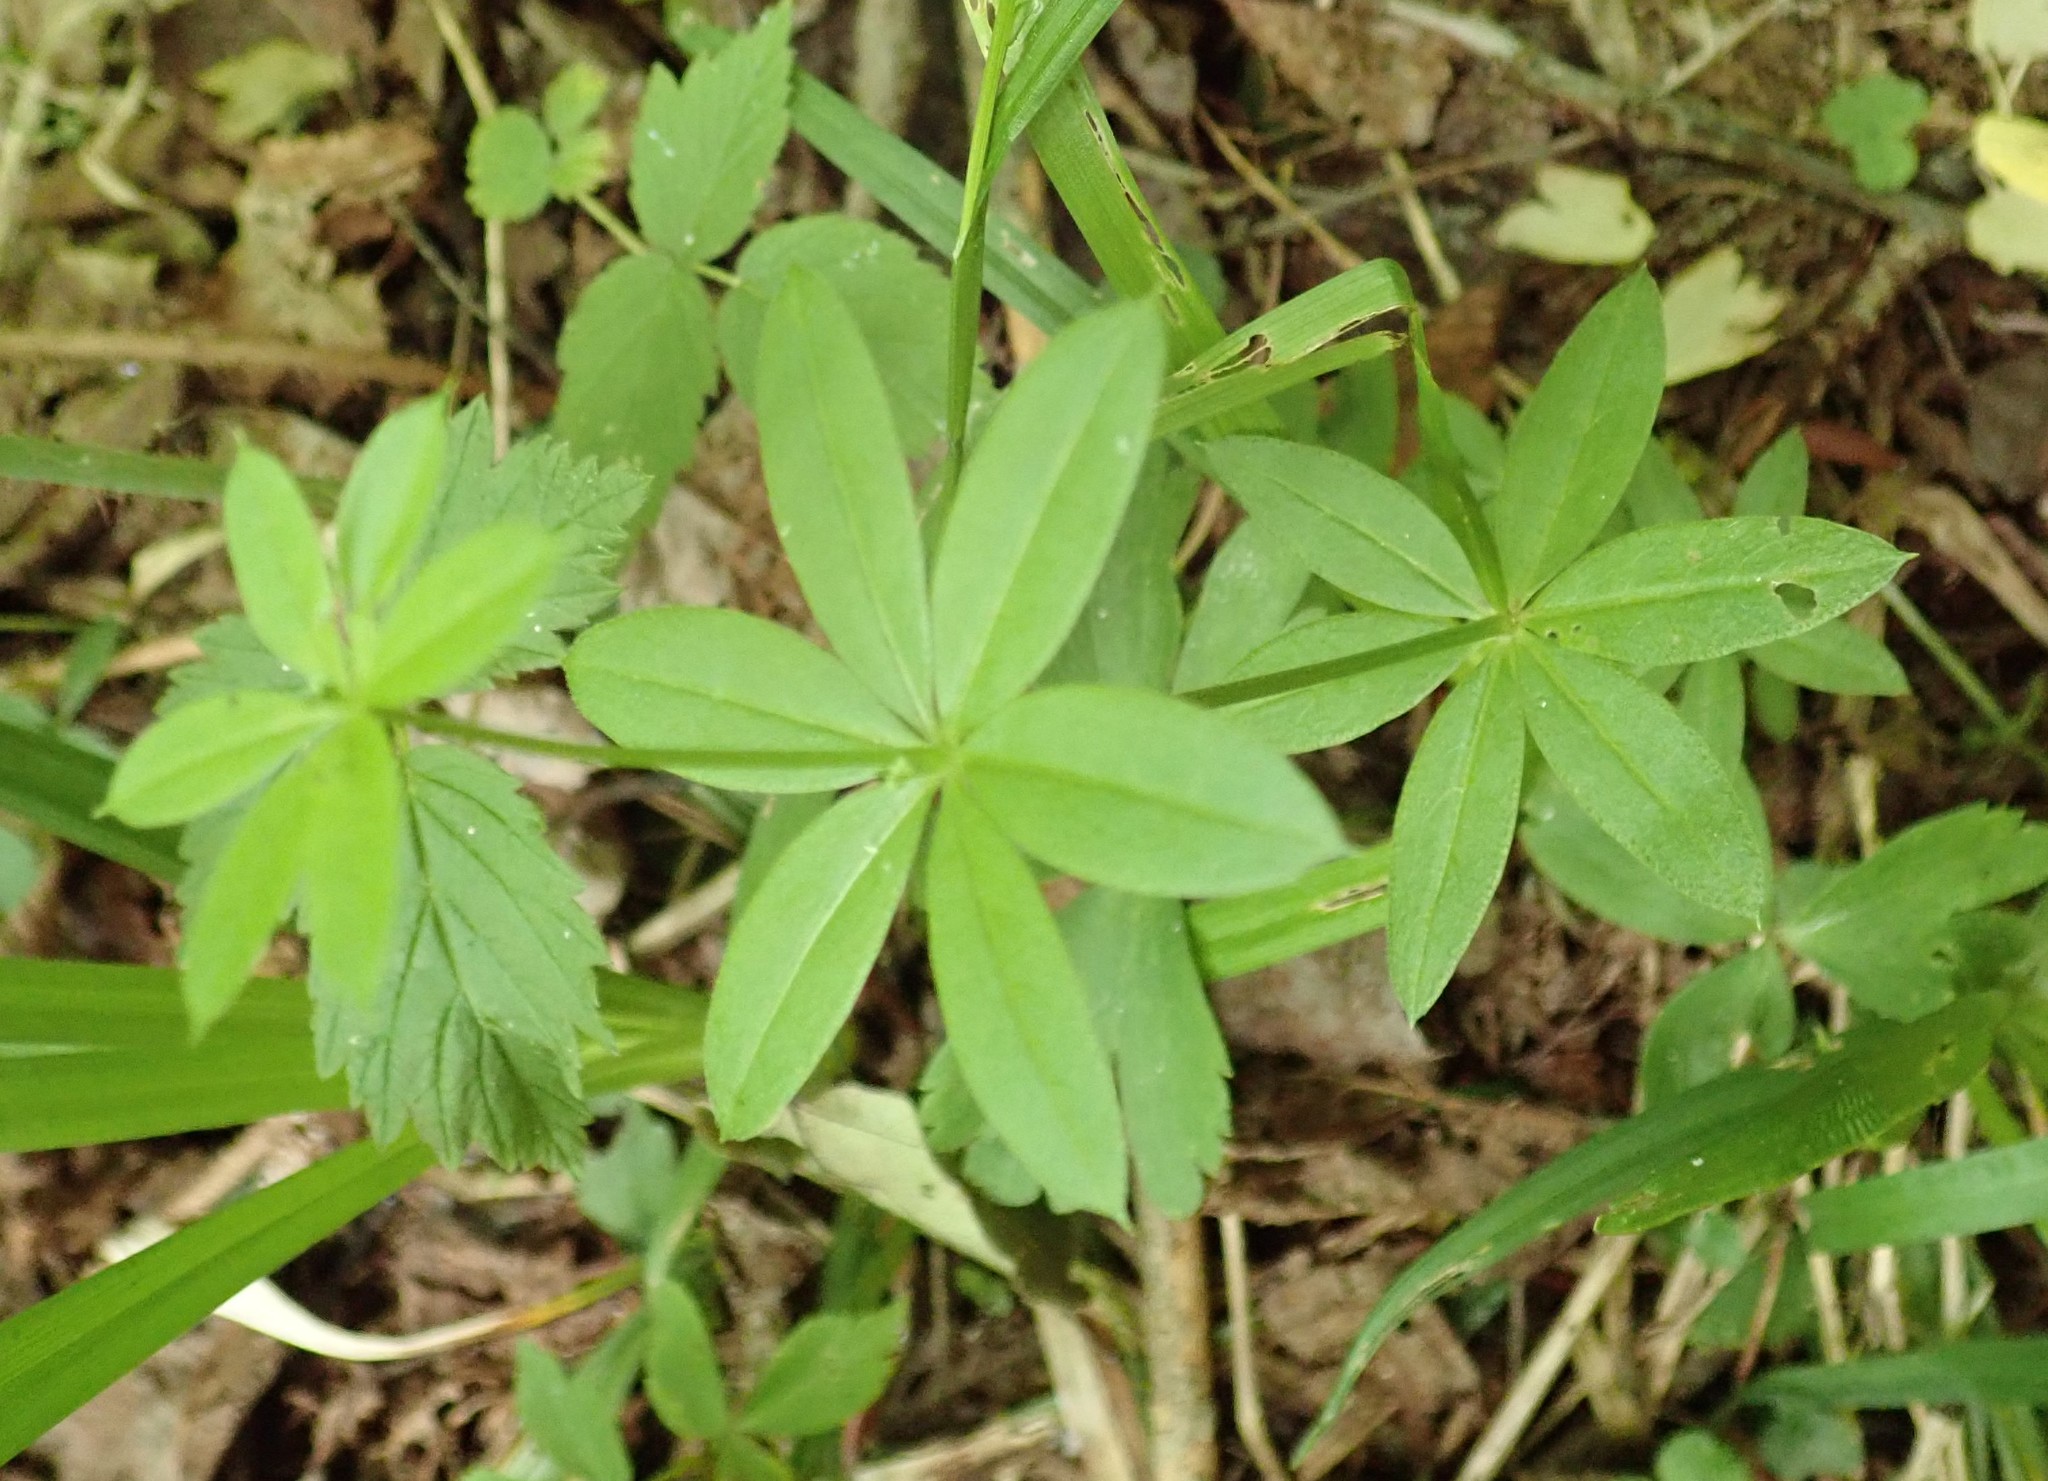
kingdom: Plantae
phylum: Tracheophyta
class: Magnoliopsida
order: Gentianales
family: Rubiaceae
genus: Galium
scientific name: Galium triflorum
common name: Fragrant bedstraw
